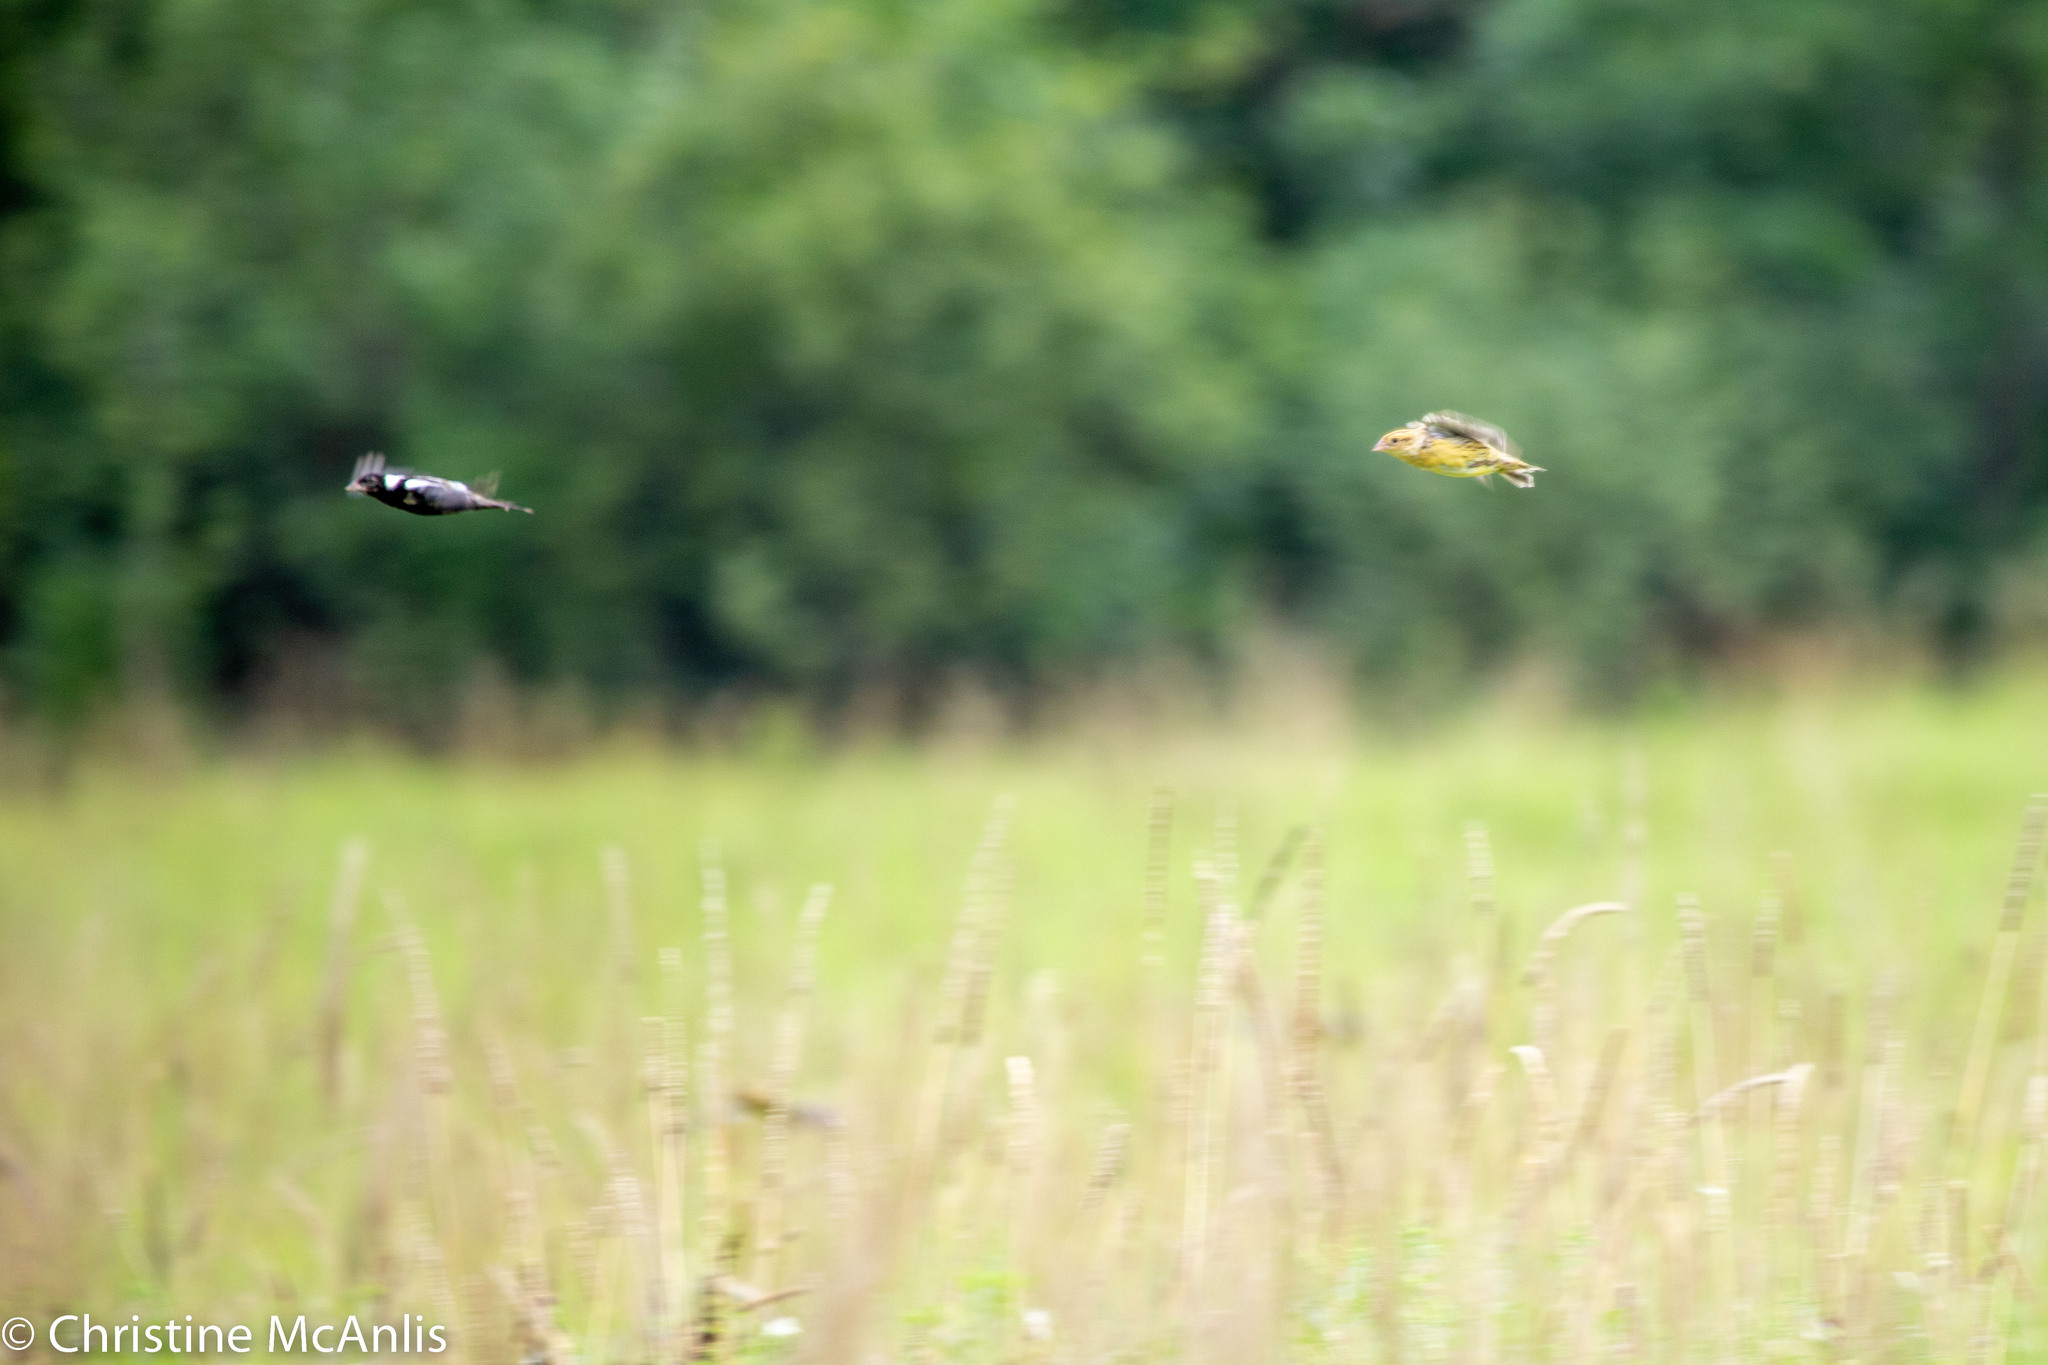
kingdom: Animalia
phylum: Chordata
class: Aves
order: Passeriformes
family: Icteridae
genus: Dolichonyx
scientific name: Dolichonyx oryzivorus
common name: Bobolink
